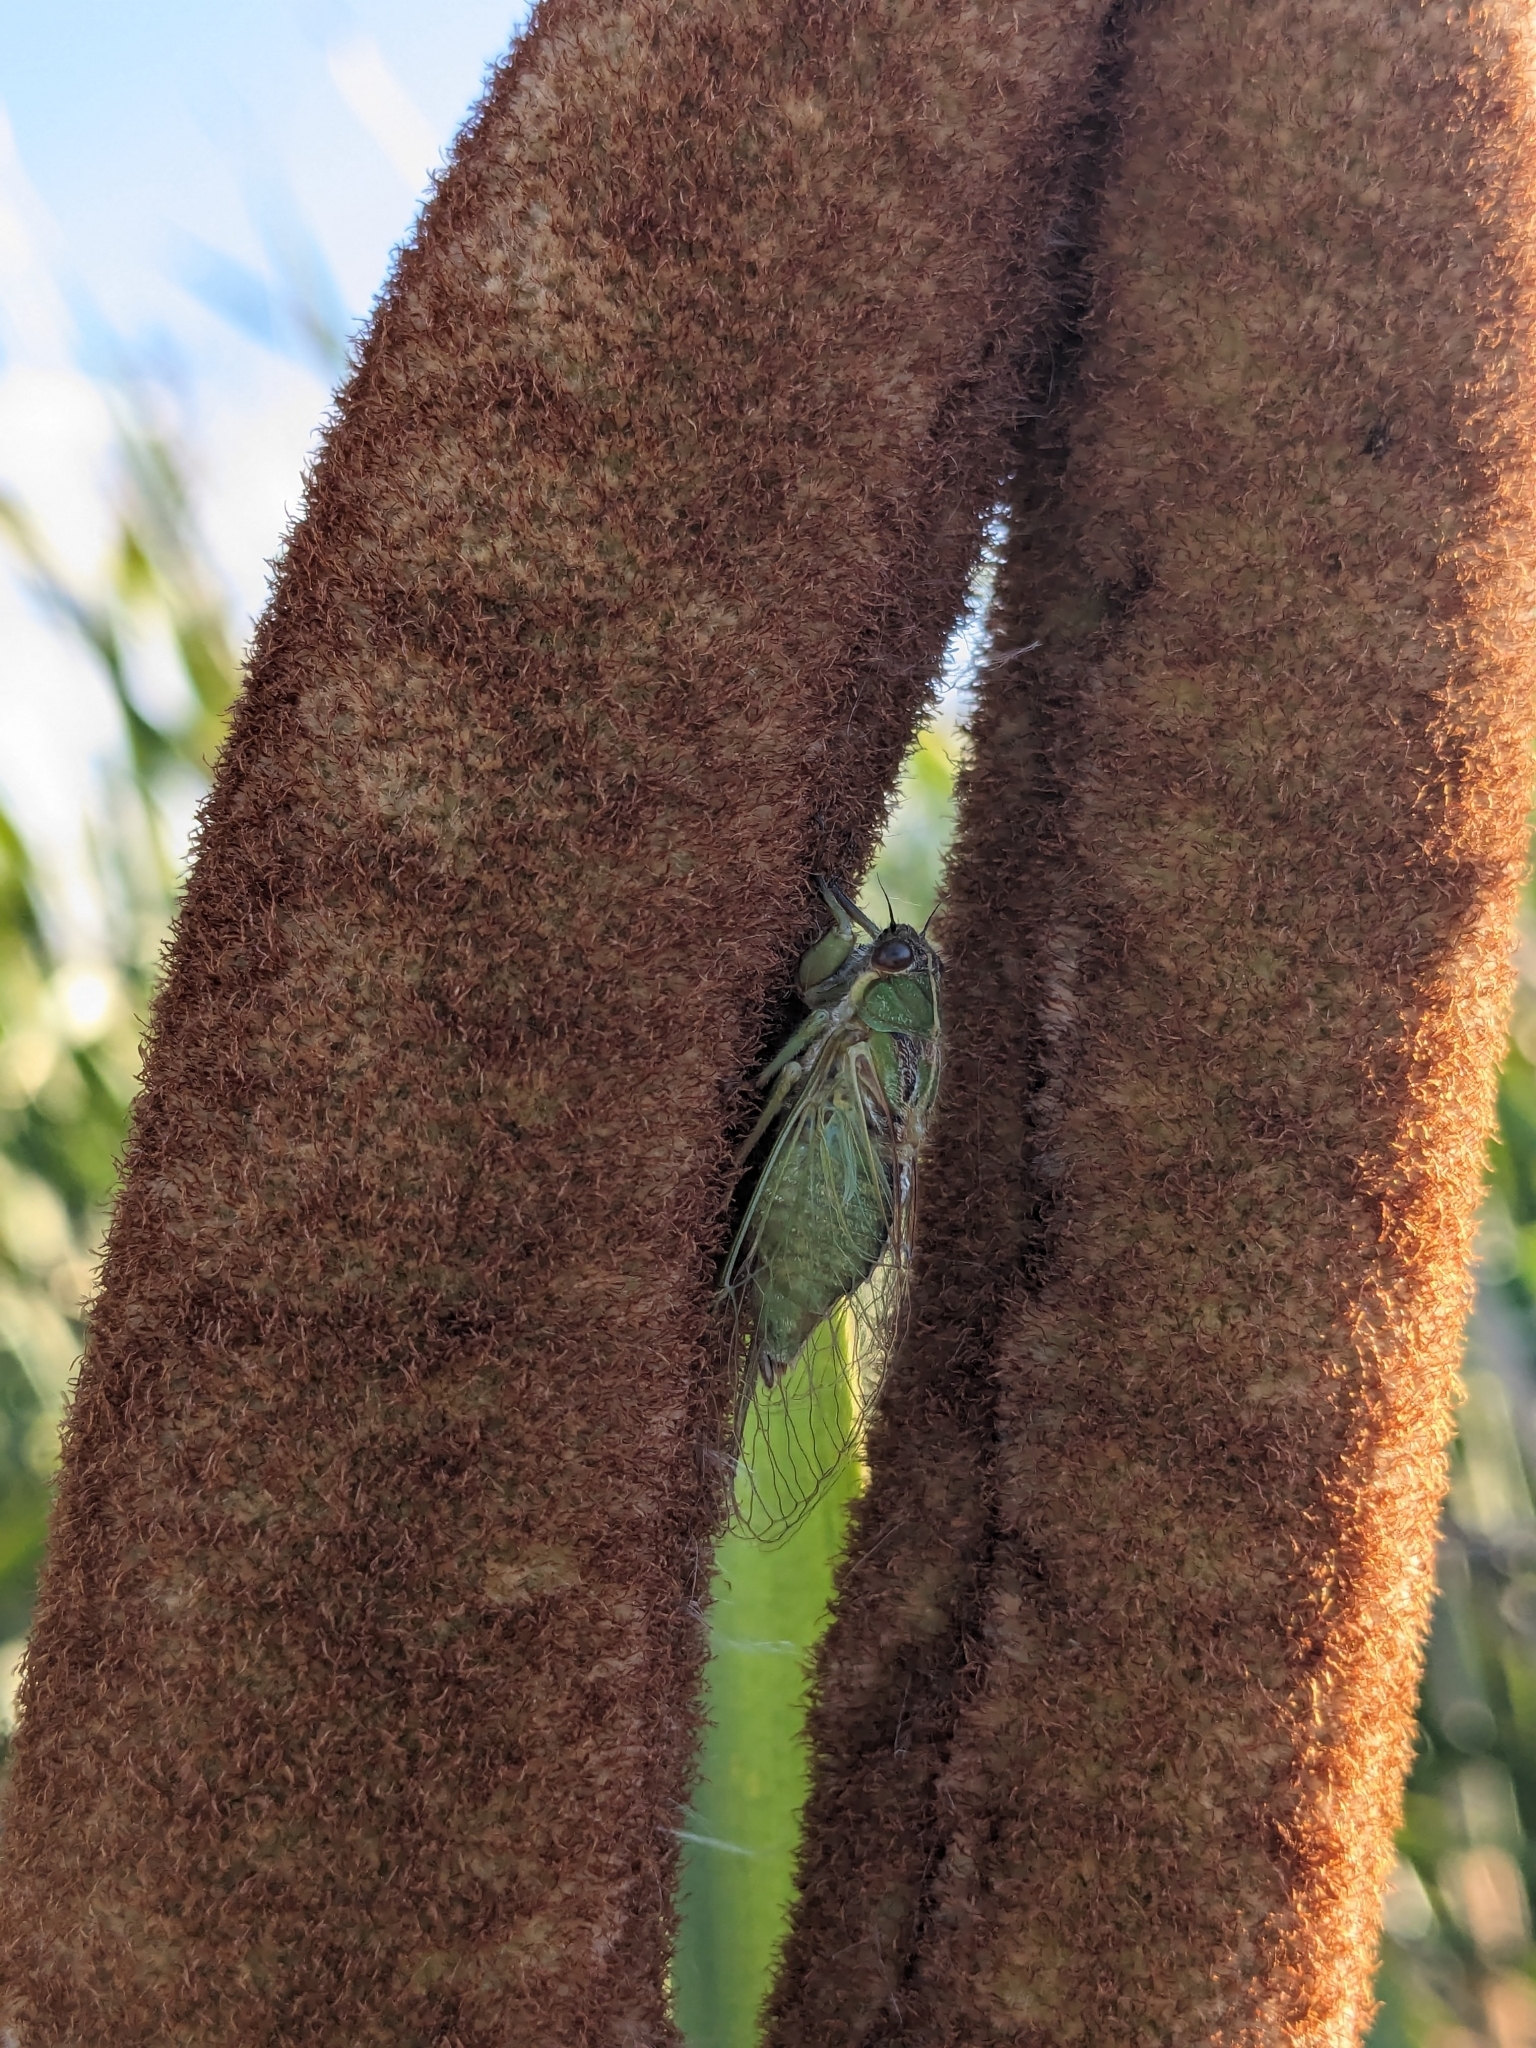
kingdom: Animalia
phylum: Arthropoda
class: Insecta
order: Hemiptera
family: Cicadidae
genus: Kikihia
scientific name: Kikihia muta
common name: Variable cicada
